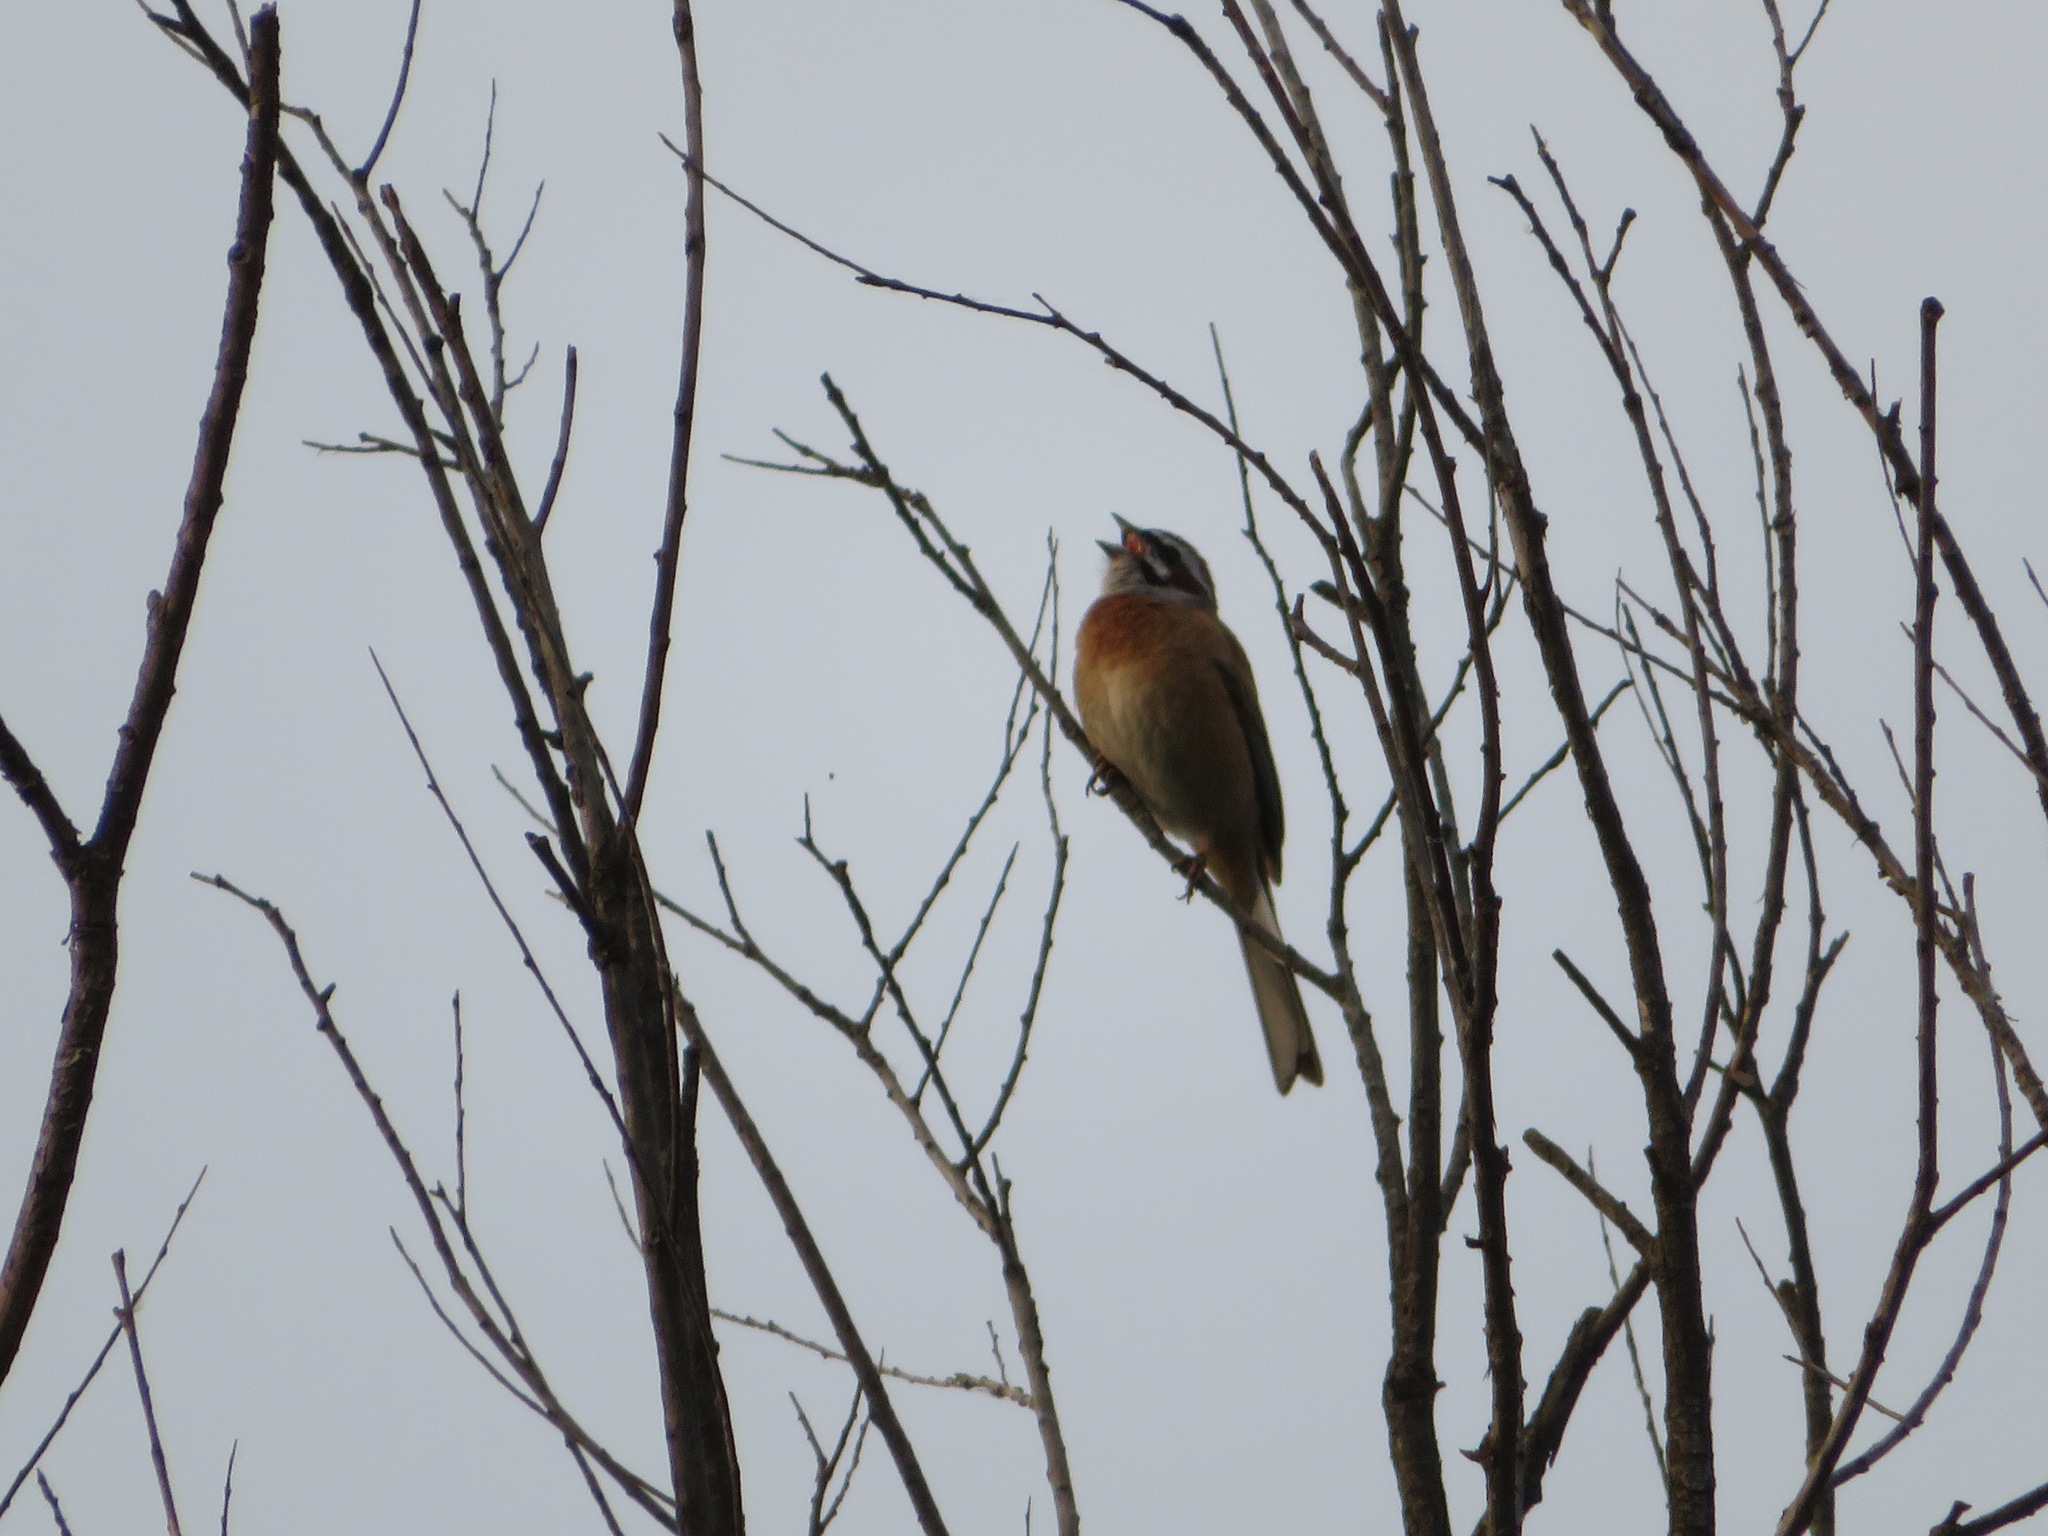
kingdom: Animalia
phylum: Chordata
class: Aves
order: Passeriformes
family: Emberizidae
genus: Emberiza
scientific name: Emberiza cioides
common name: Meadow bunting
